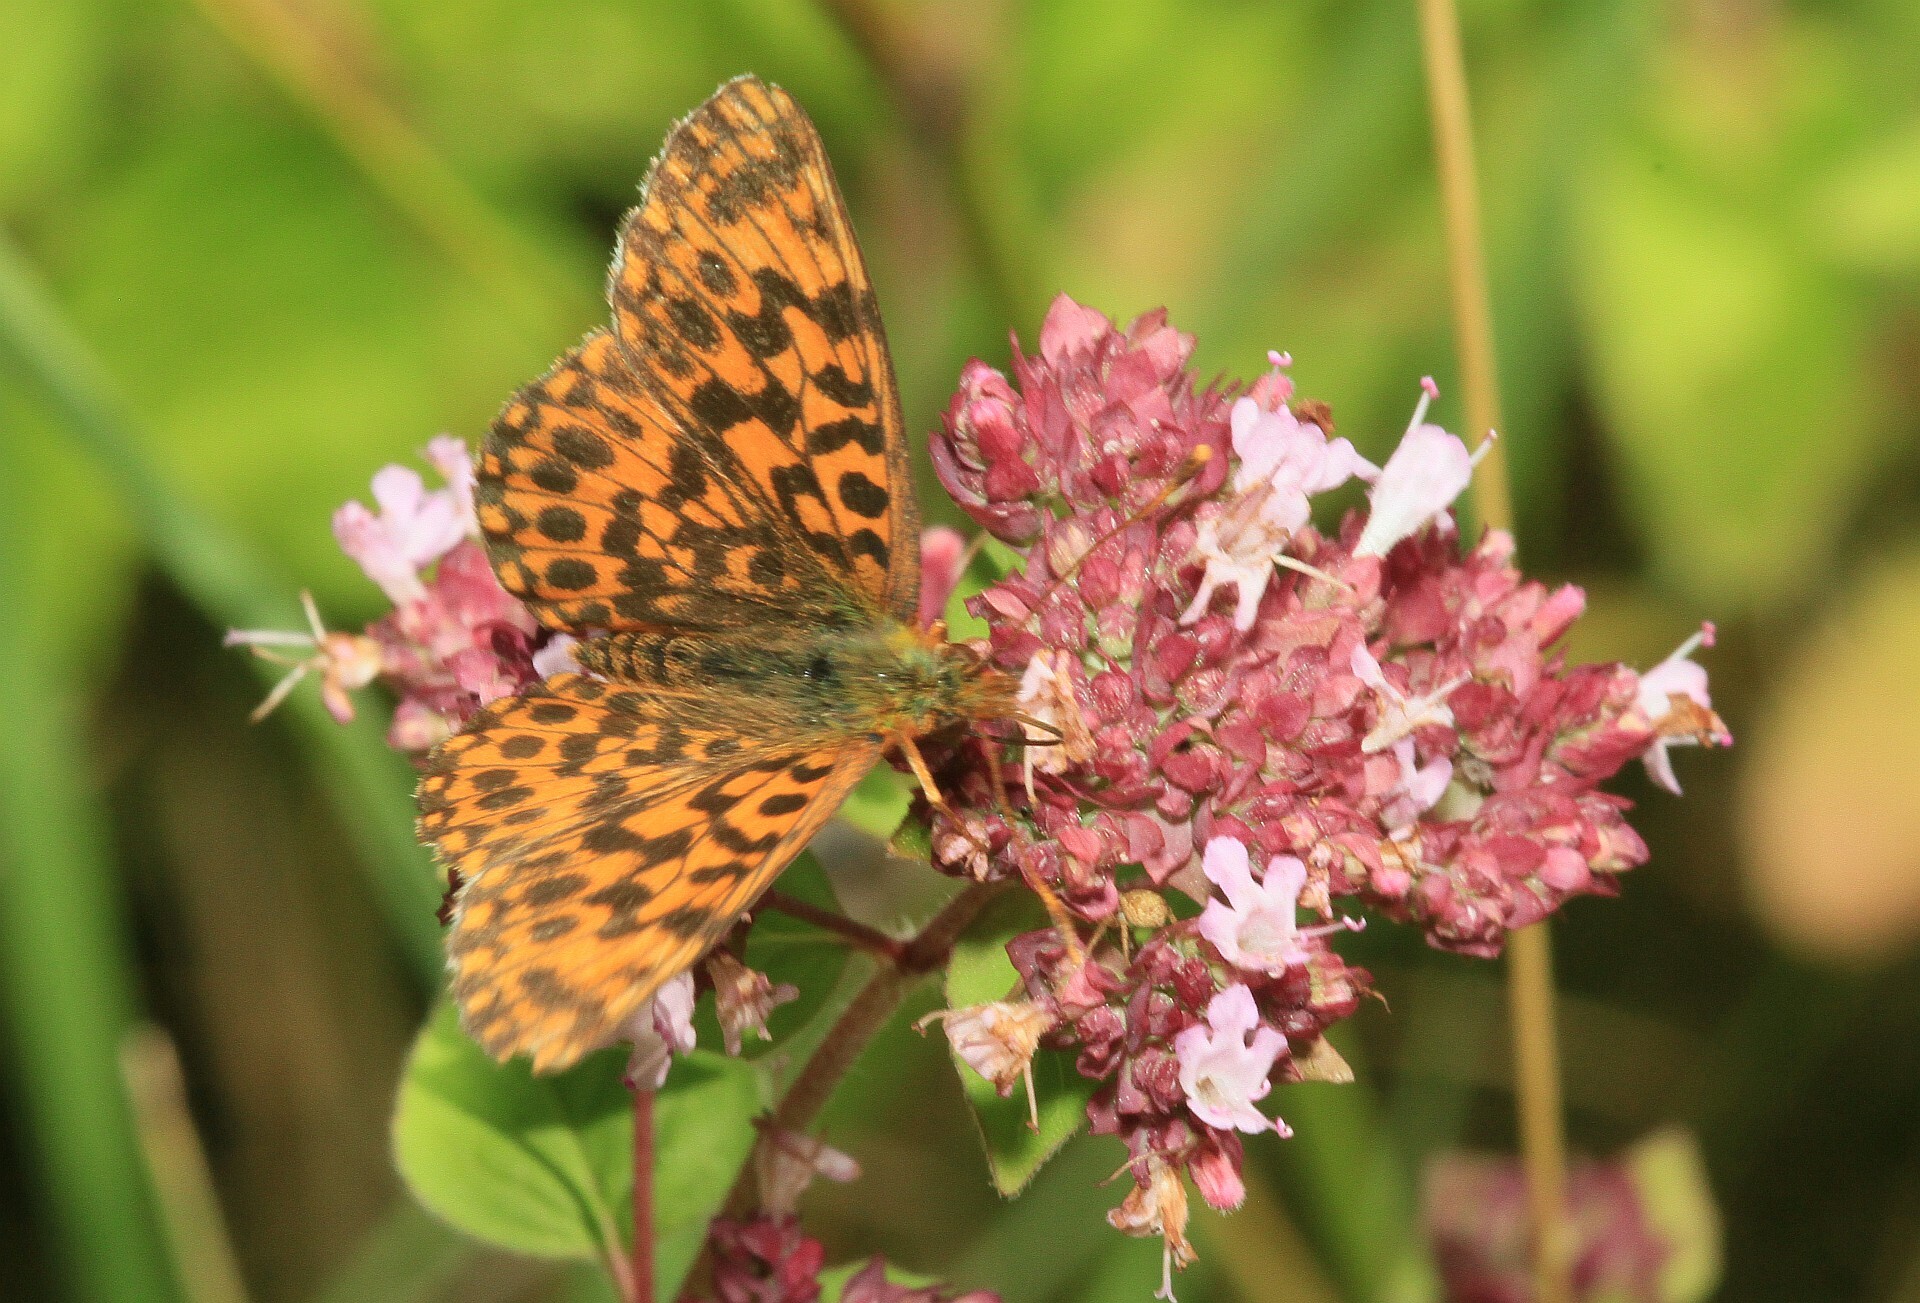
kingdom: Animalia
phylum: Arthropoda
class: Insecta
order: Lepidoptera
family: Nymphalidae
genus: Boloria
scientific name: Boloria dia
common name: Weaver's fritillary
